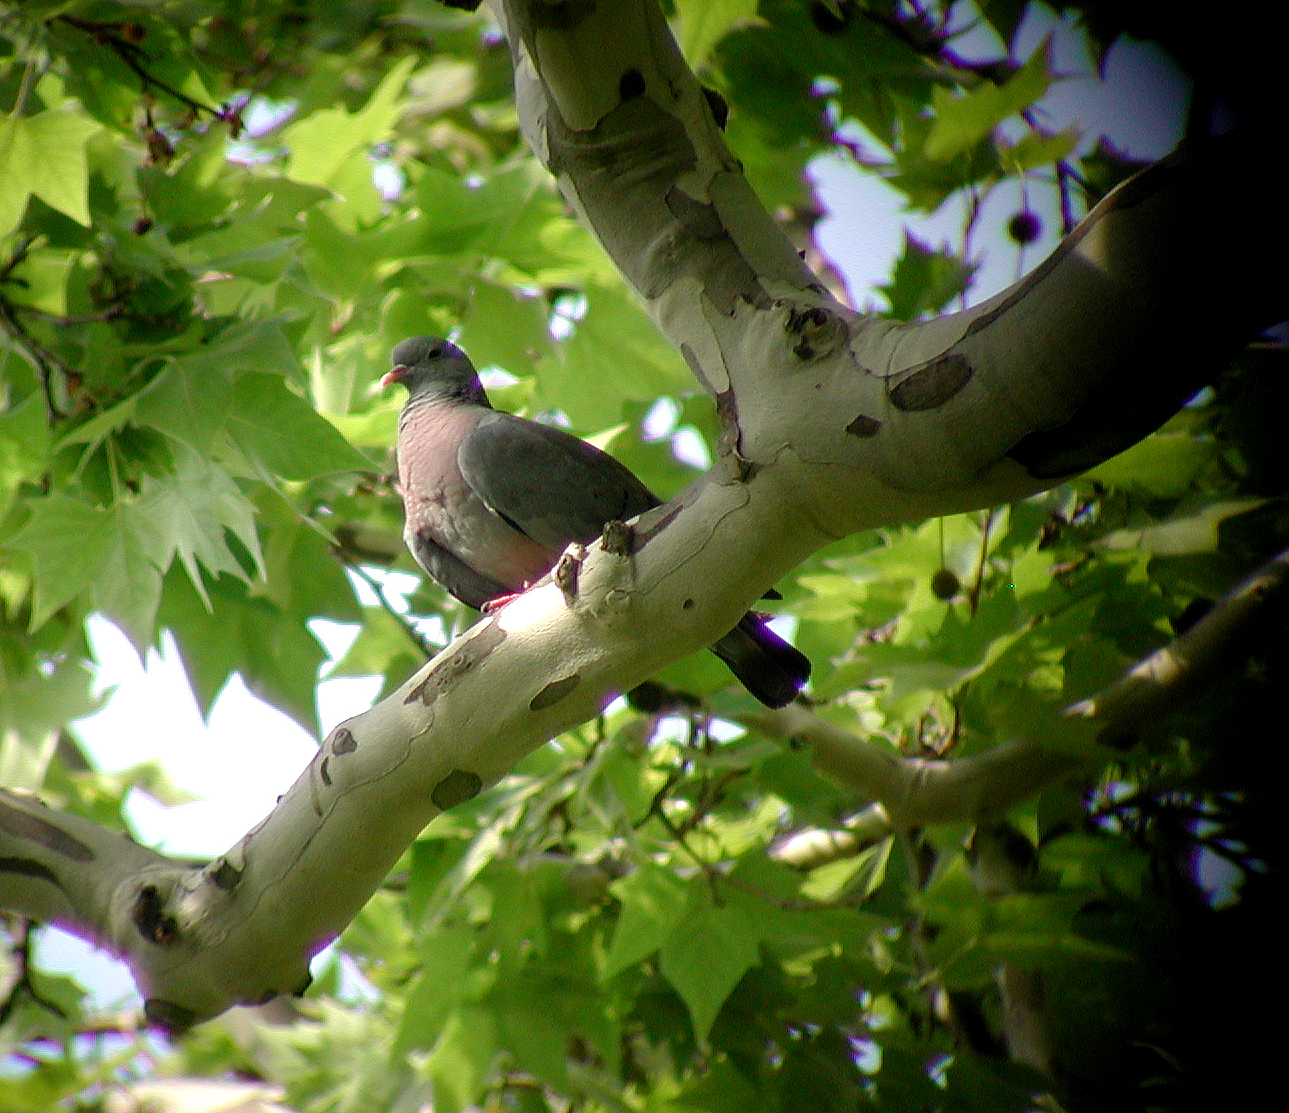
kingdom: Animalia
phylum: Chordata
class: Aves
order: Columbiformes
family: Columbidae
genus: Columba
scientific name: Columba oenas
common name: Stock dove
